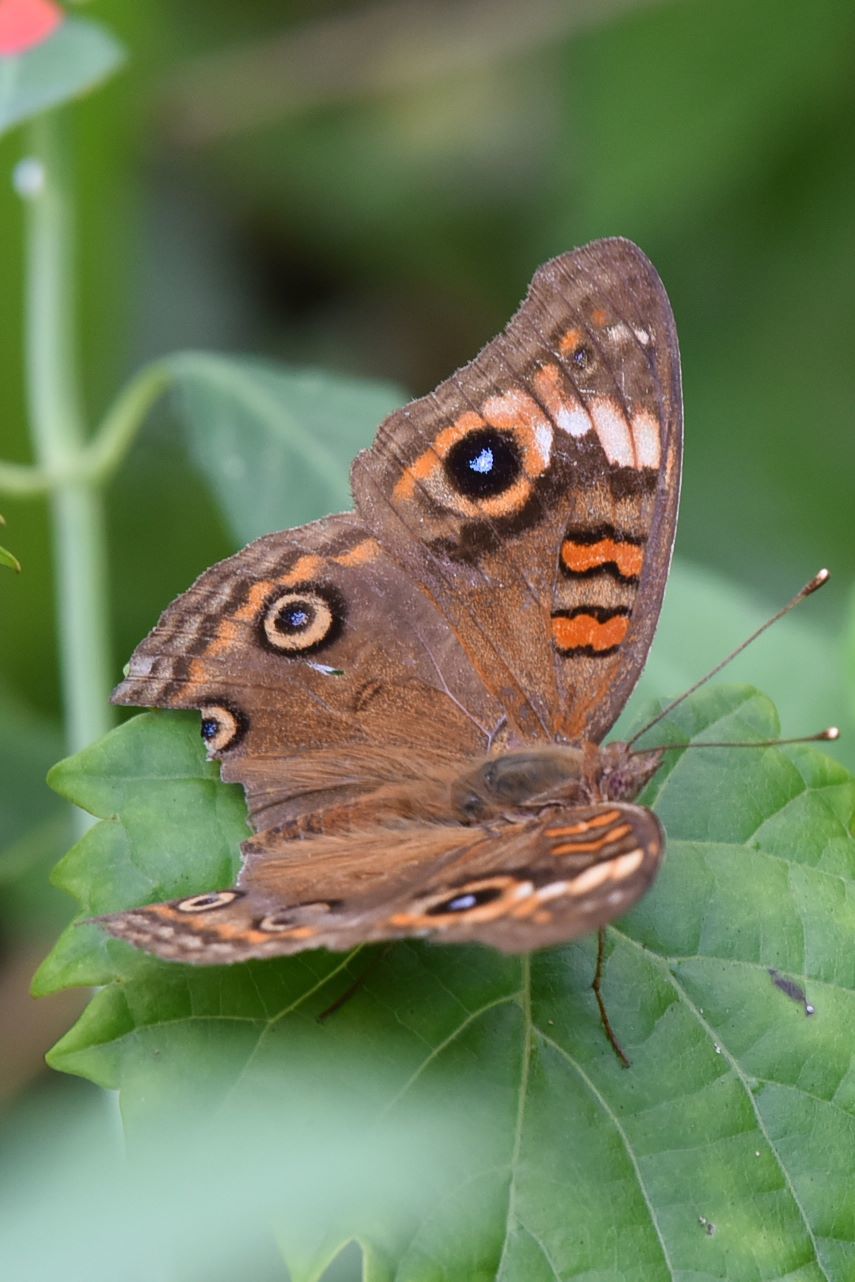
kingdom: Animalia
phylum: Arthropoda
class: Insecta
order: Lepidoptera
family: Nymphalidae
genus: Junonia
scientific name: Junonia neildi
